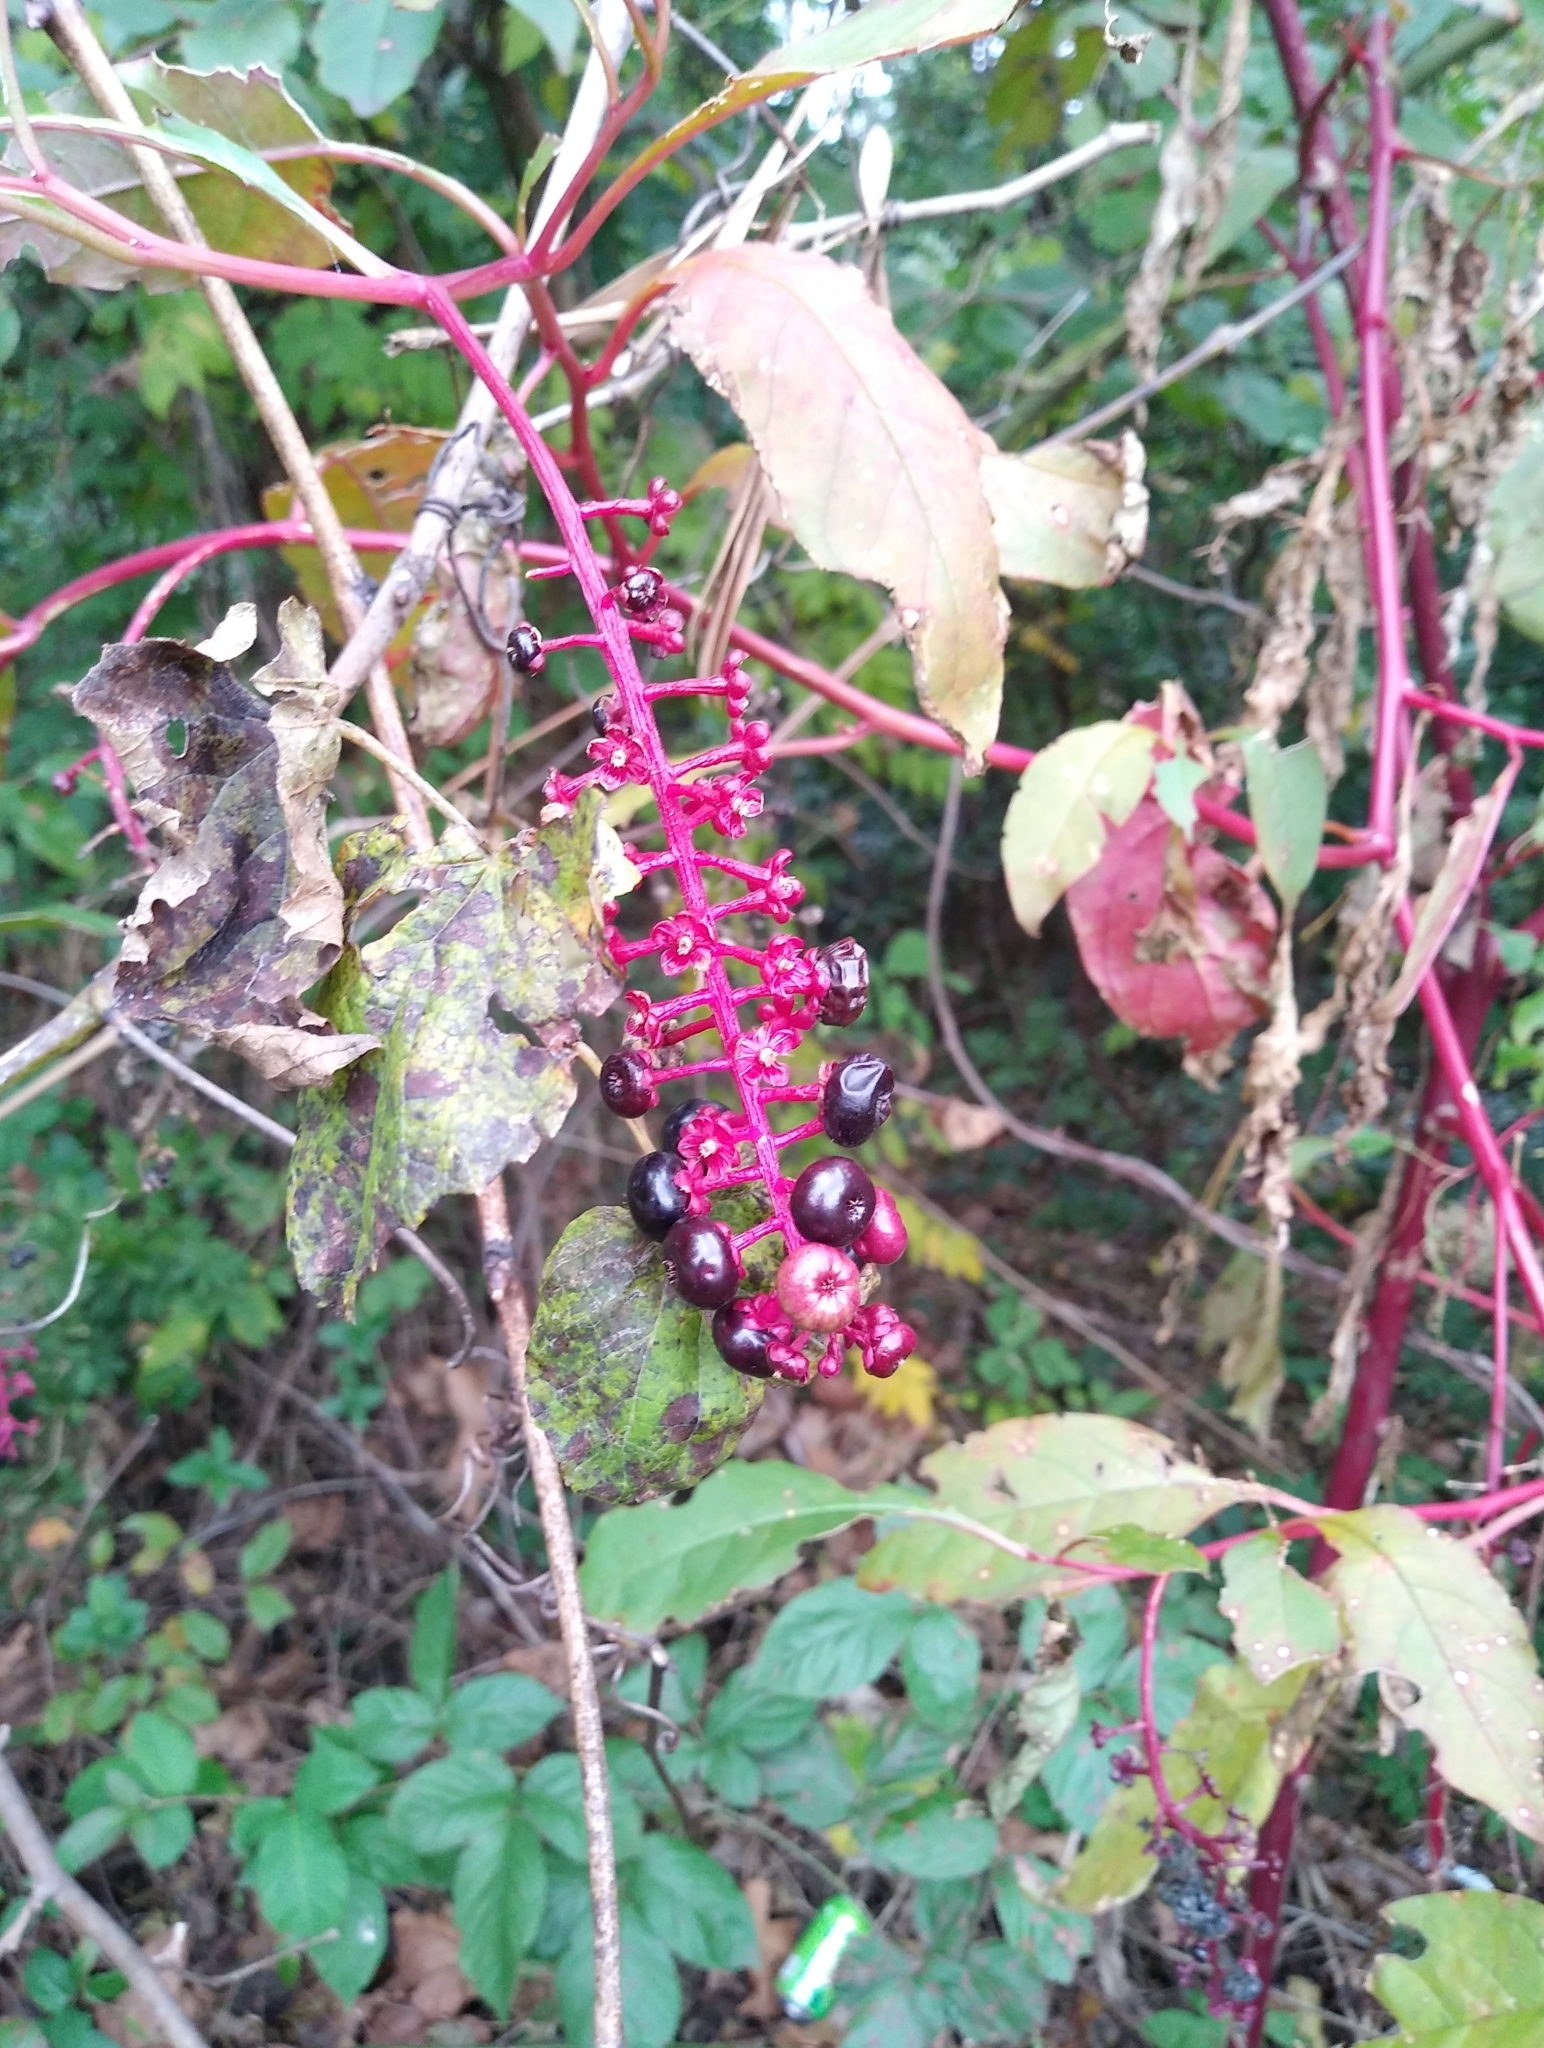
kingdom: Plantae
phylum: Tracheophyta
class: Magnoliopsida
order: Caryophyllales
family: Phytolaccaceae
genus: Phytolacca
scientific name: Phytolacca americana
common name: American pokeweed
